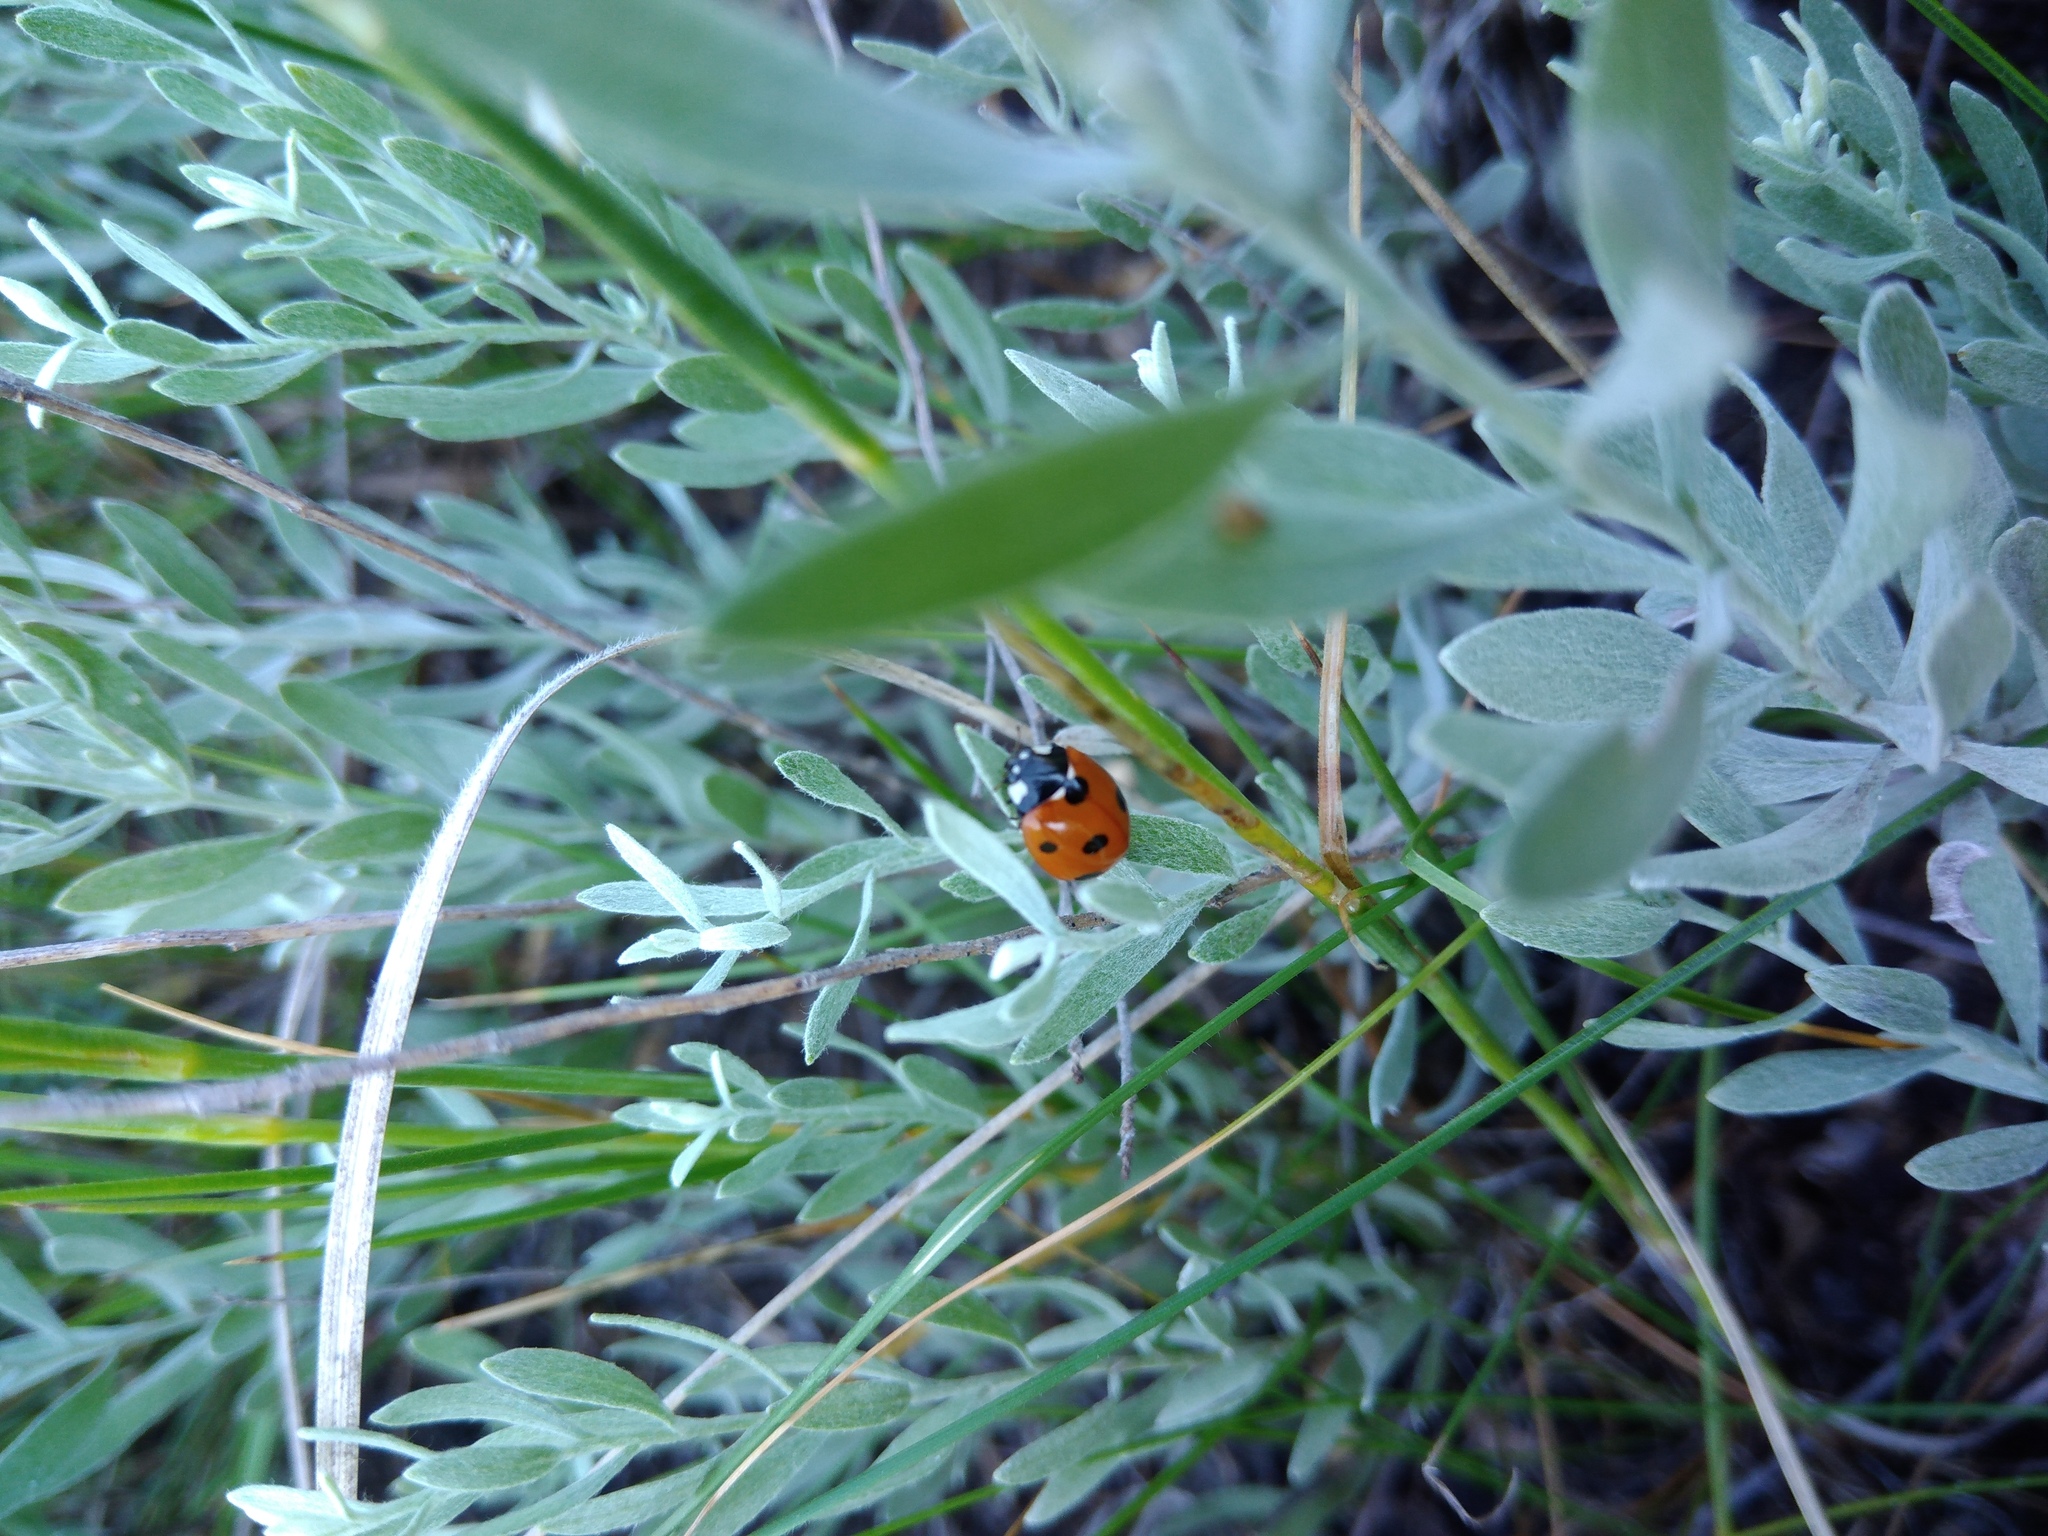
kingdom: Animalia
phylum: Arthropoda
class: Insecta
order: Coleoptera
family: Coccinellidae
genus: Coccinella
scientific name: Coccinella septempunctata
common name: Sevenspotted lady beetle
